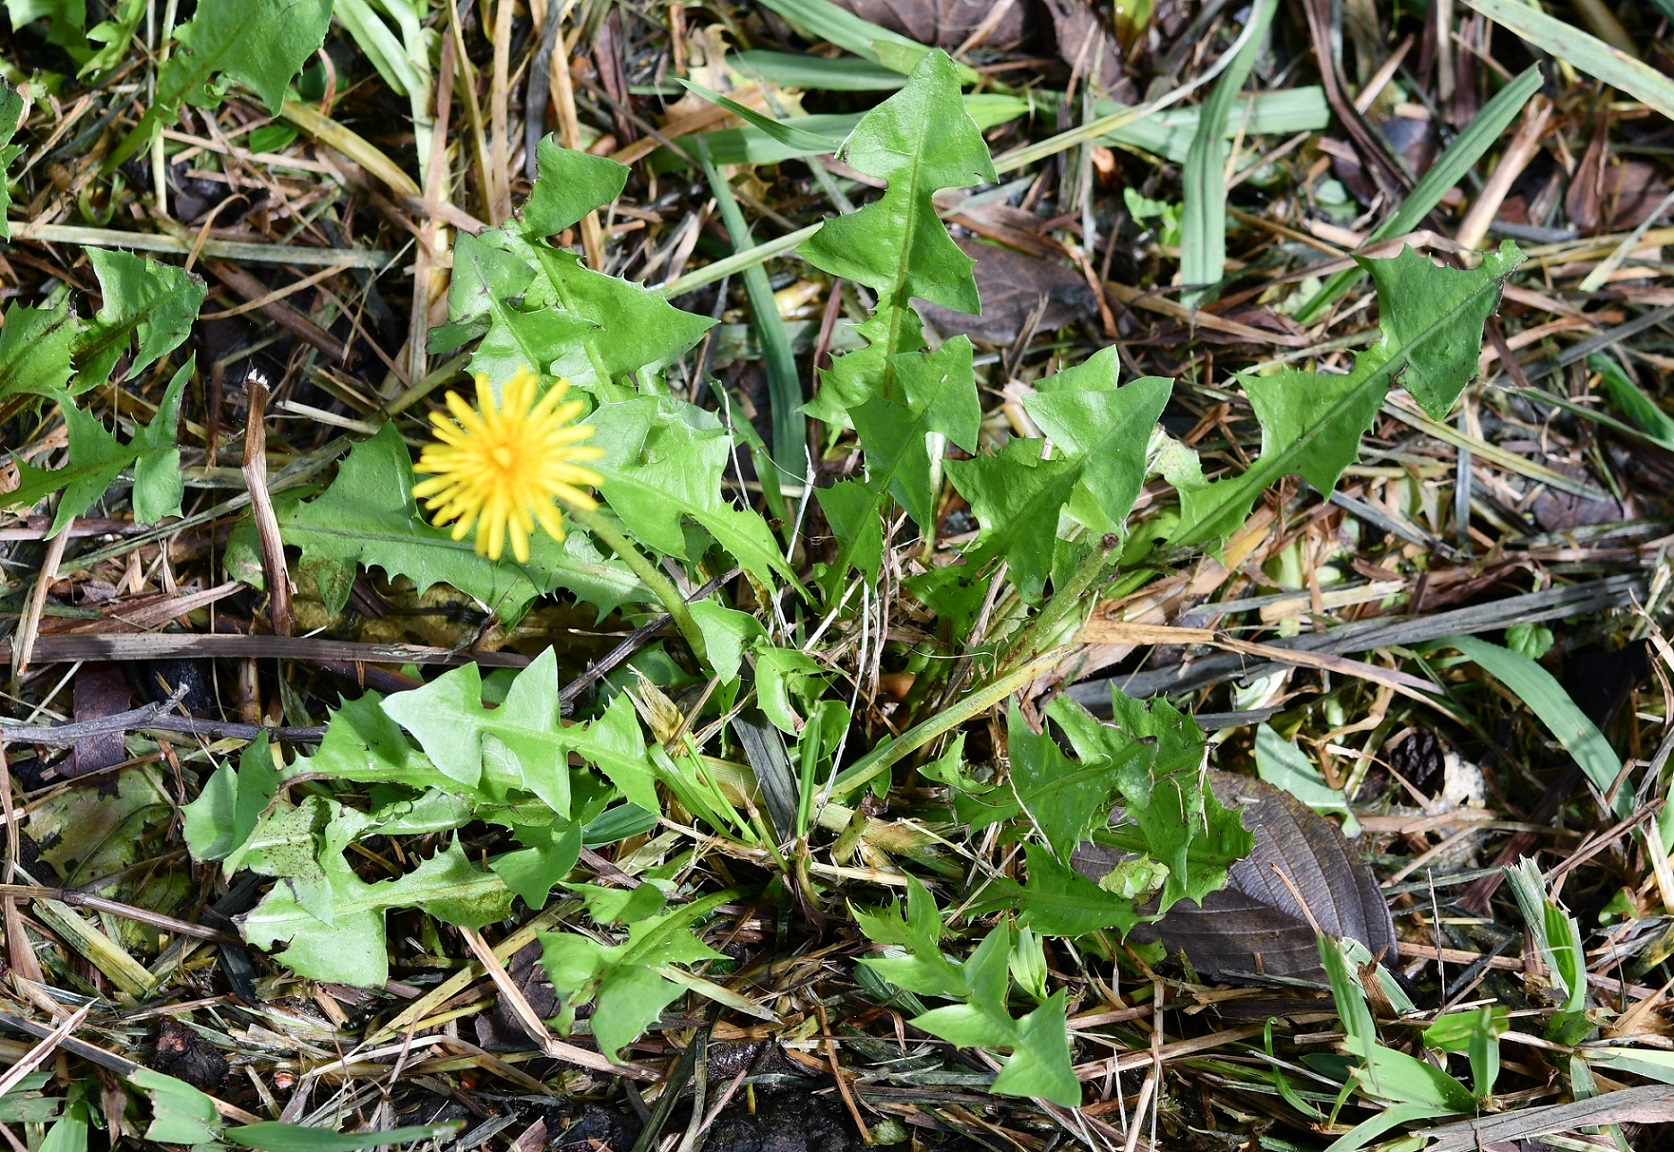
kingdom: Plantae
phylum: Tracheophyta
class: Magnoliopsida
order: Asterales
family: Asteraceae
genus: Taraxacum
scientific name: Taraxacum officinale
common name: Common dandelion
